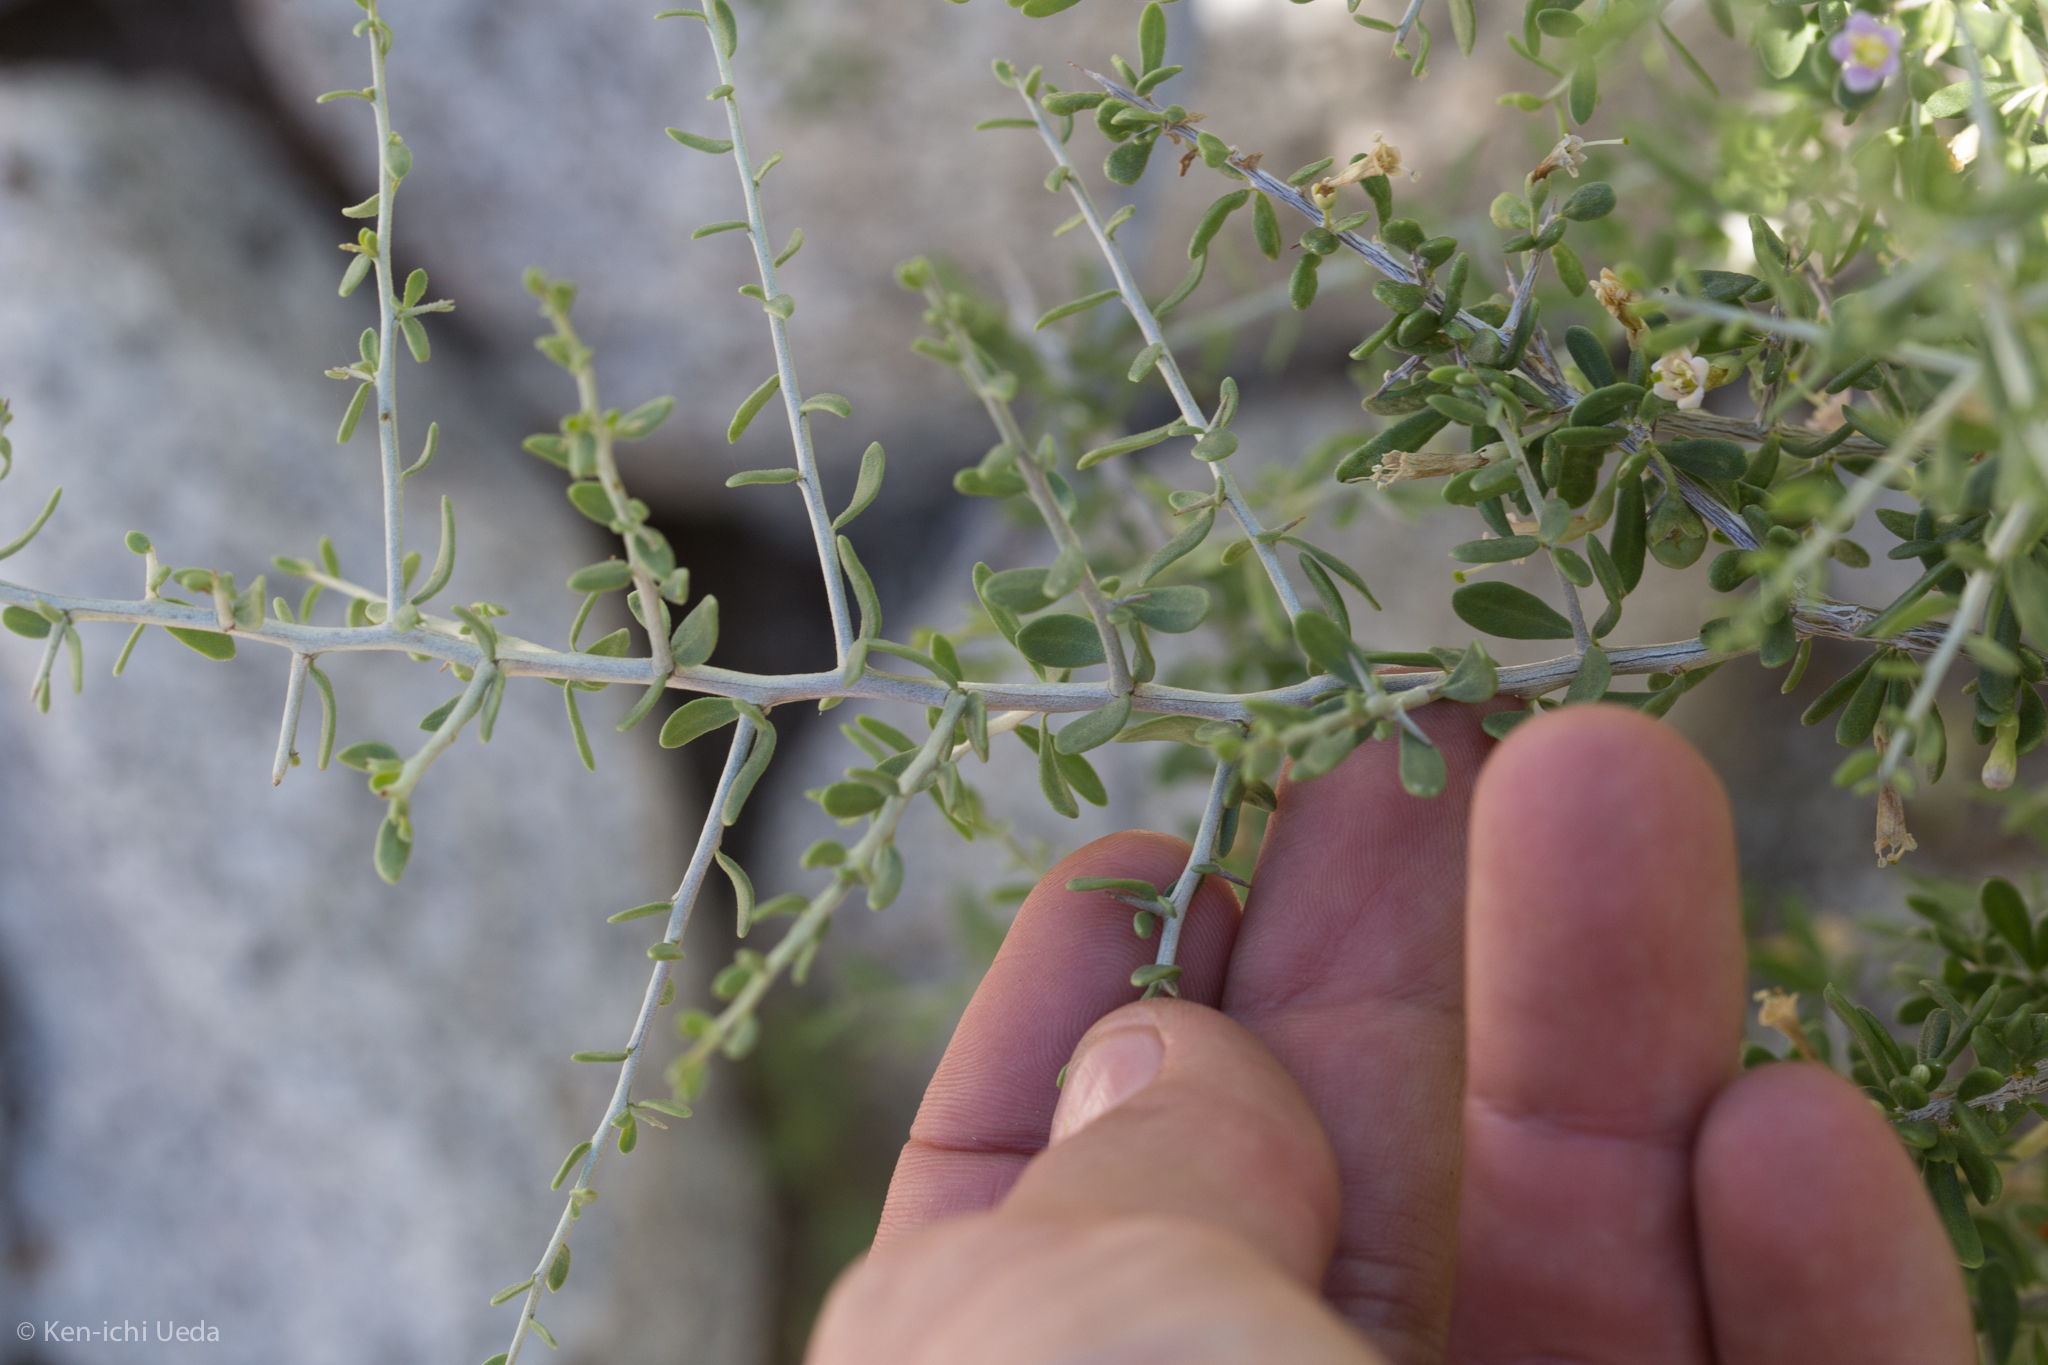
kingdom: Plantae
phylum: Tracheophyta
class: Magnoliopsida
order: Solanales
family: Solanaceae
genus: Lycium
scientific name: Lycium andersonii
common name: Water-jacket
